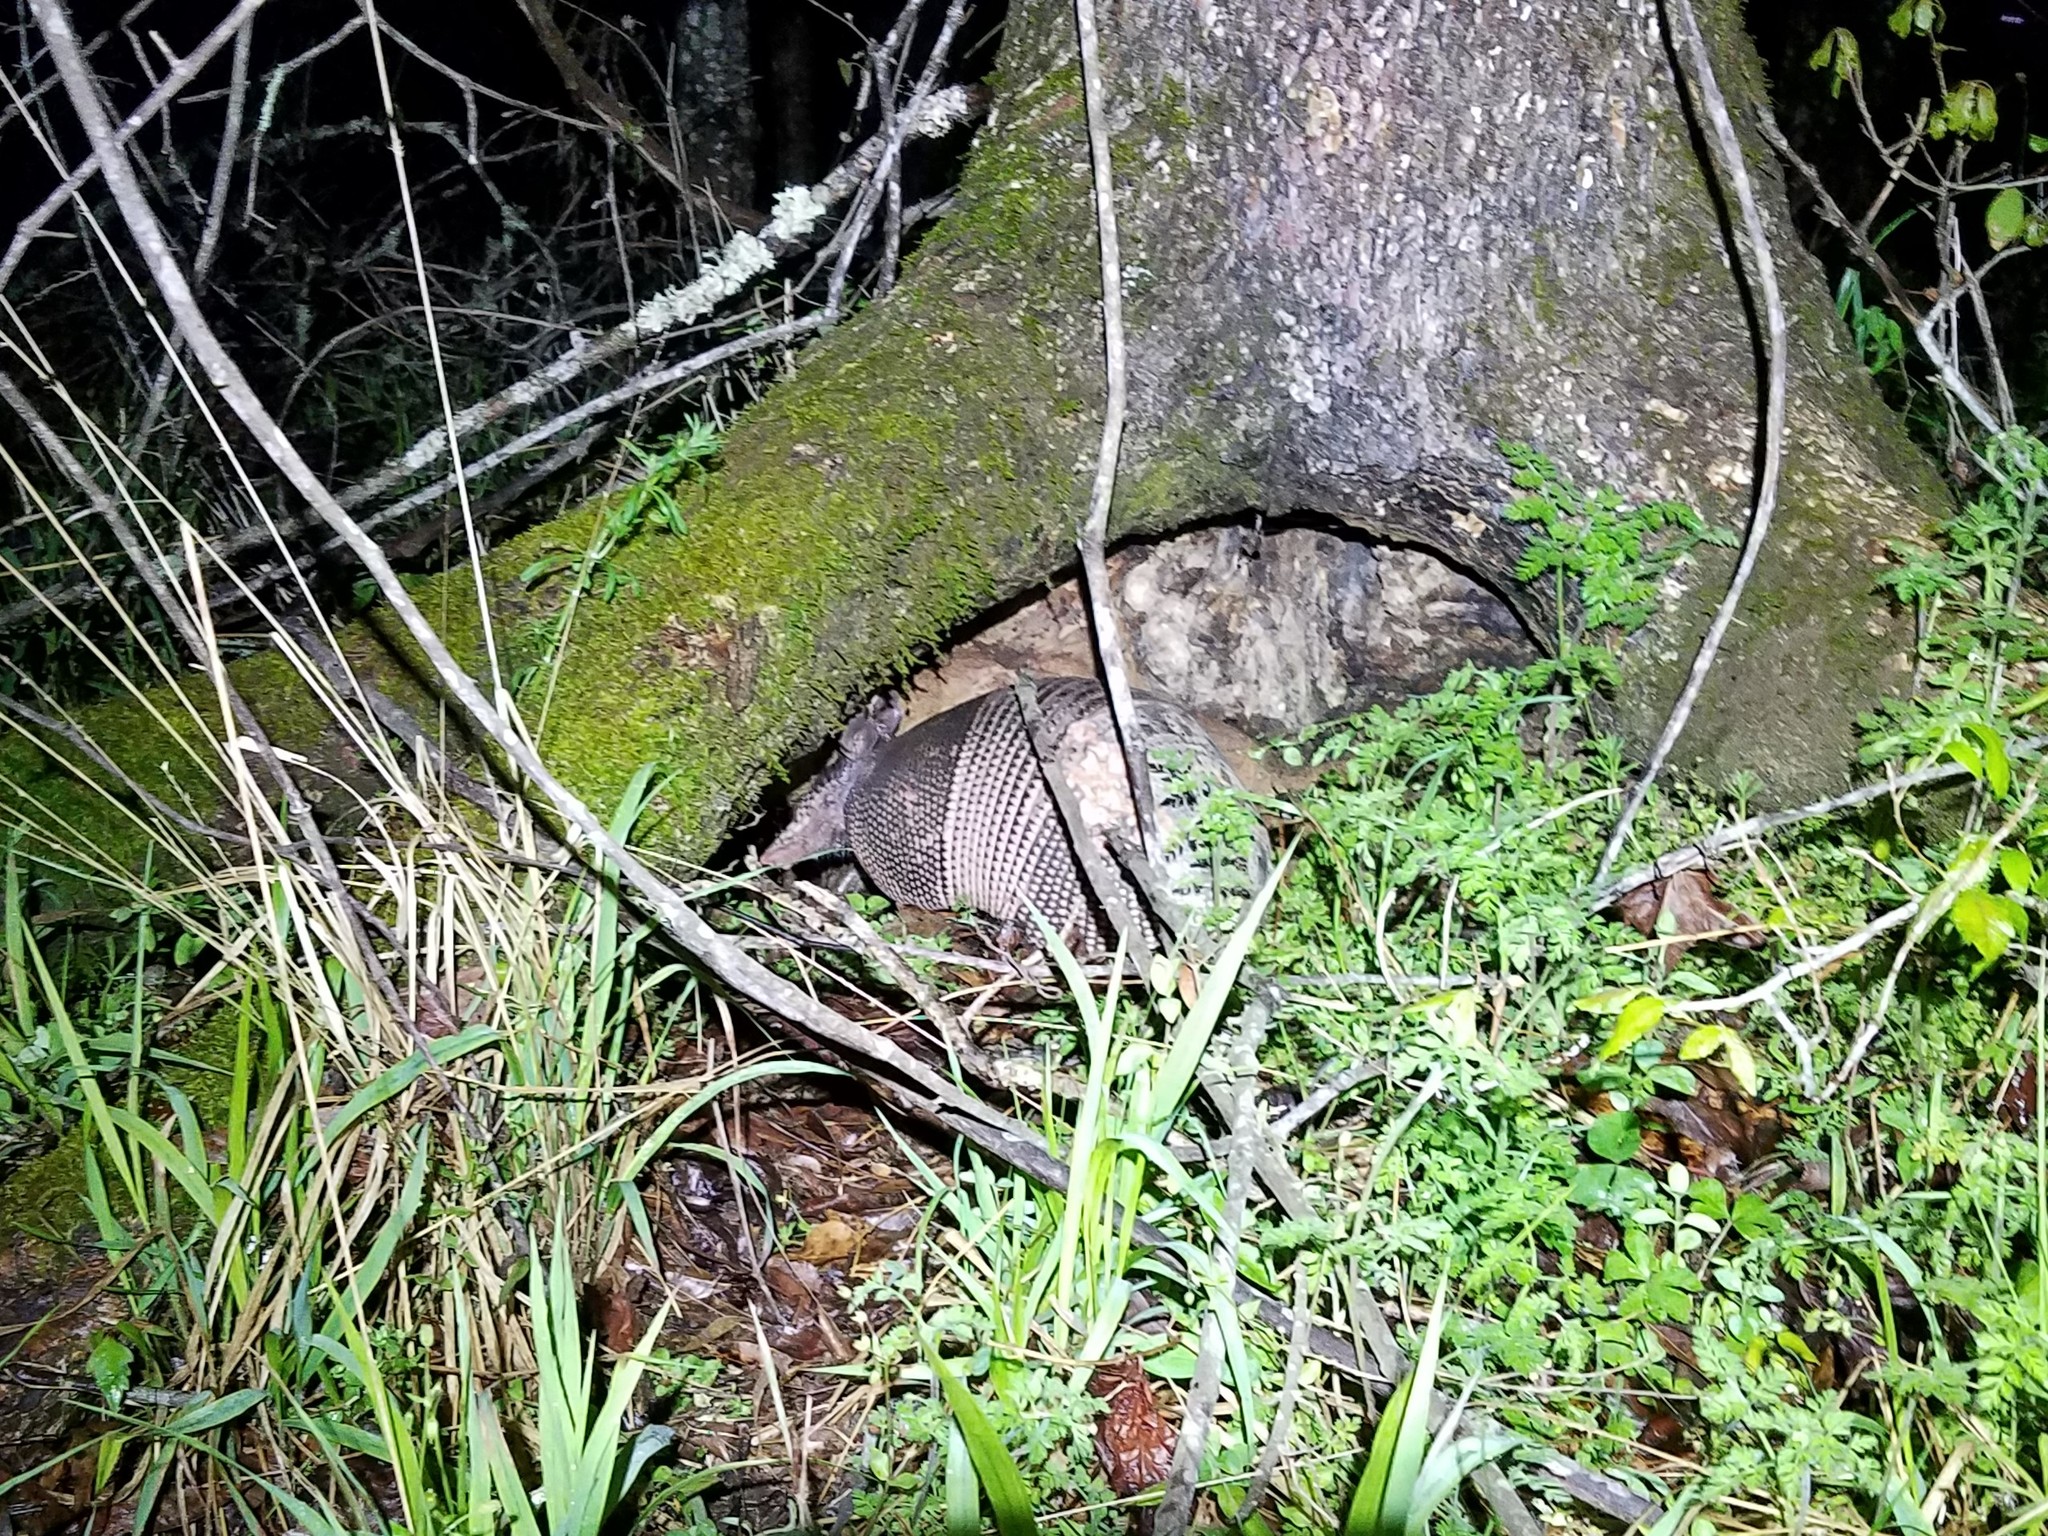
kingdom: Animalia
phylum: Chordata
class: Mammalia
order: Cingulata
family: Dasypodidae
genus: Dasypus
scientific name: Dasypus novemcinctus
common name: Nine-banded armadillo
